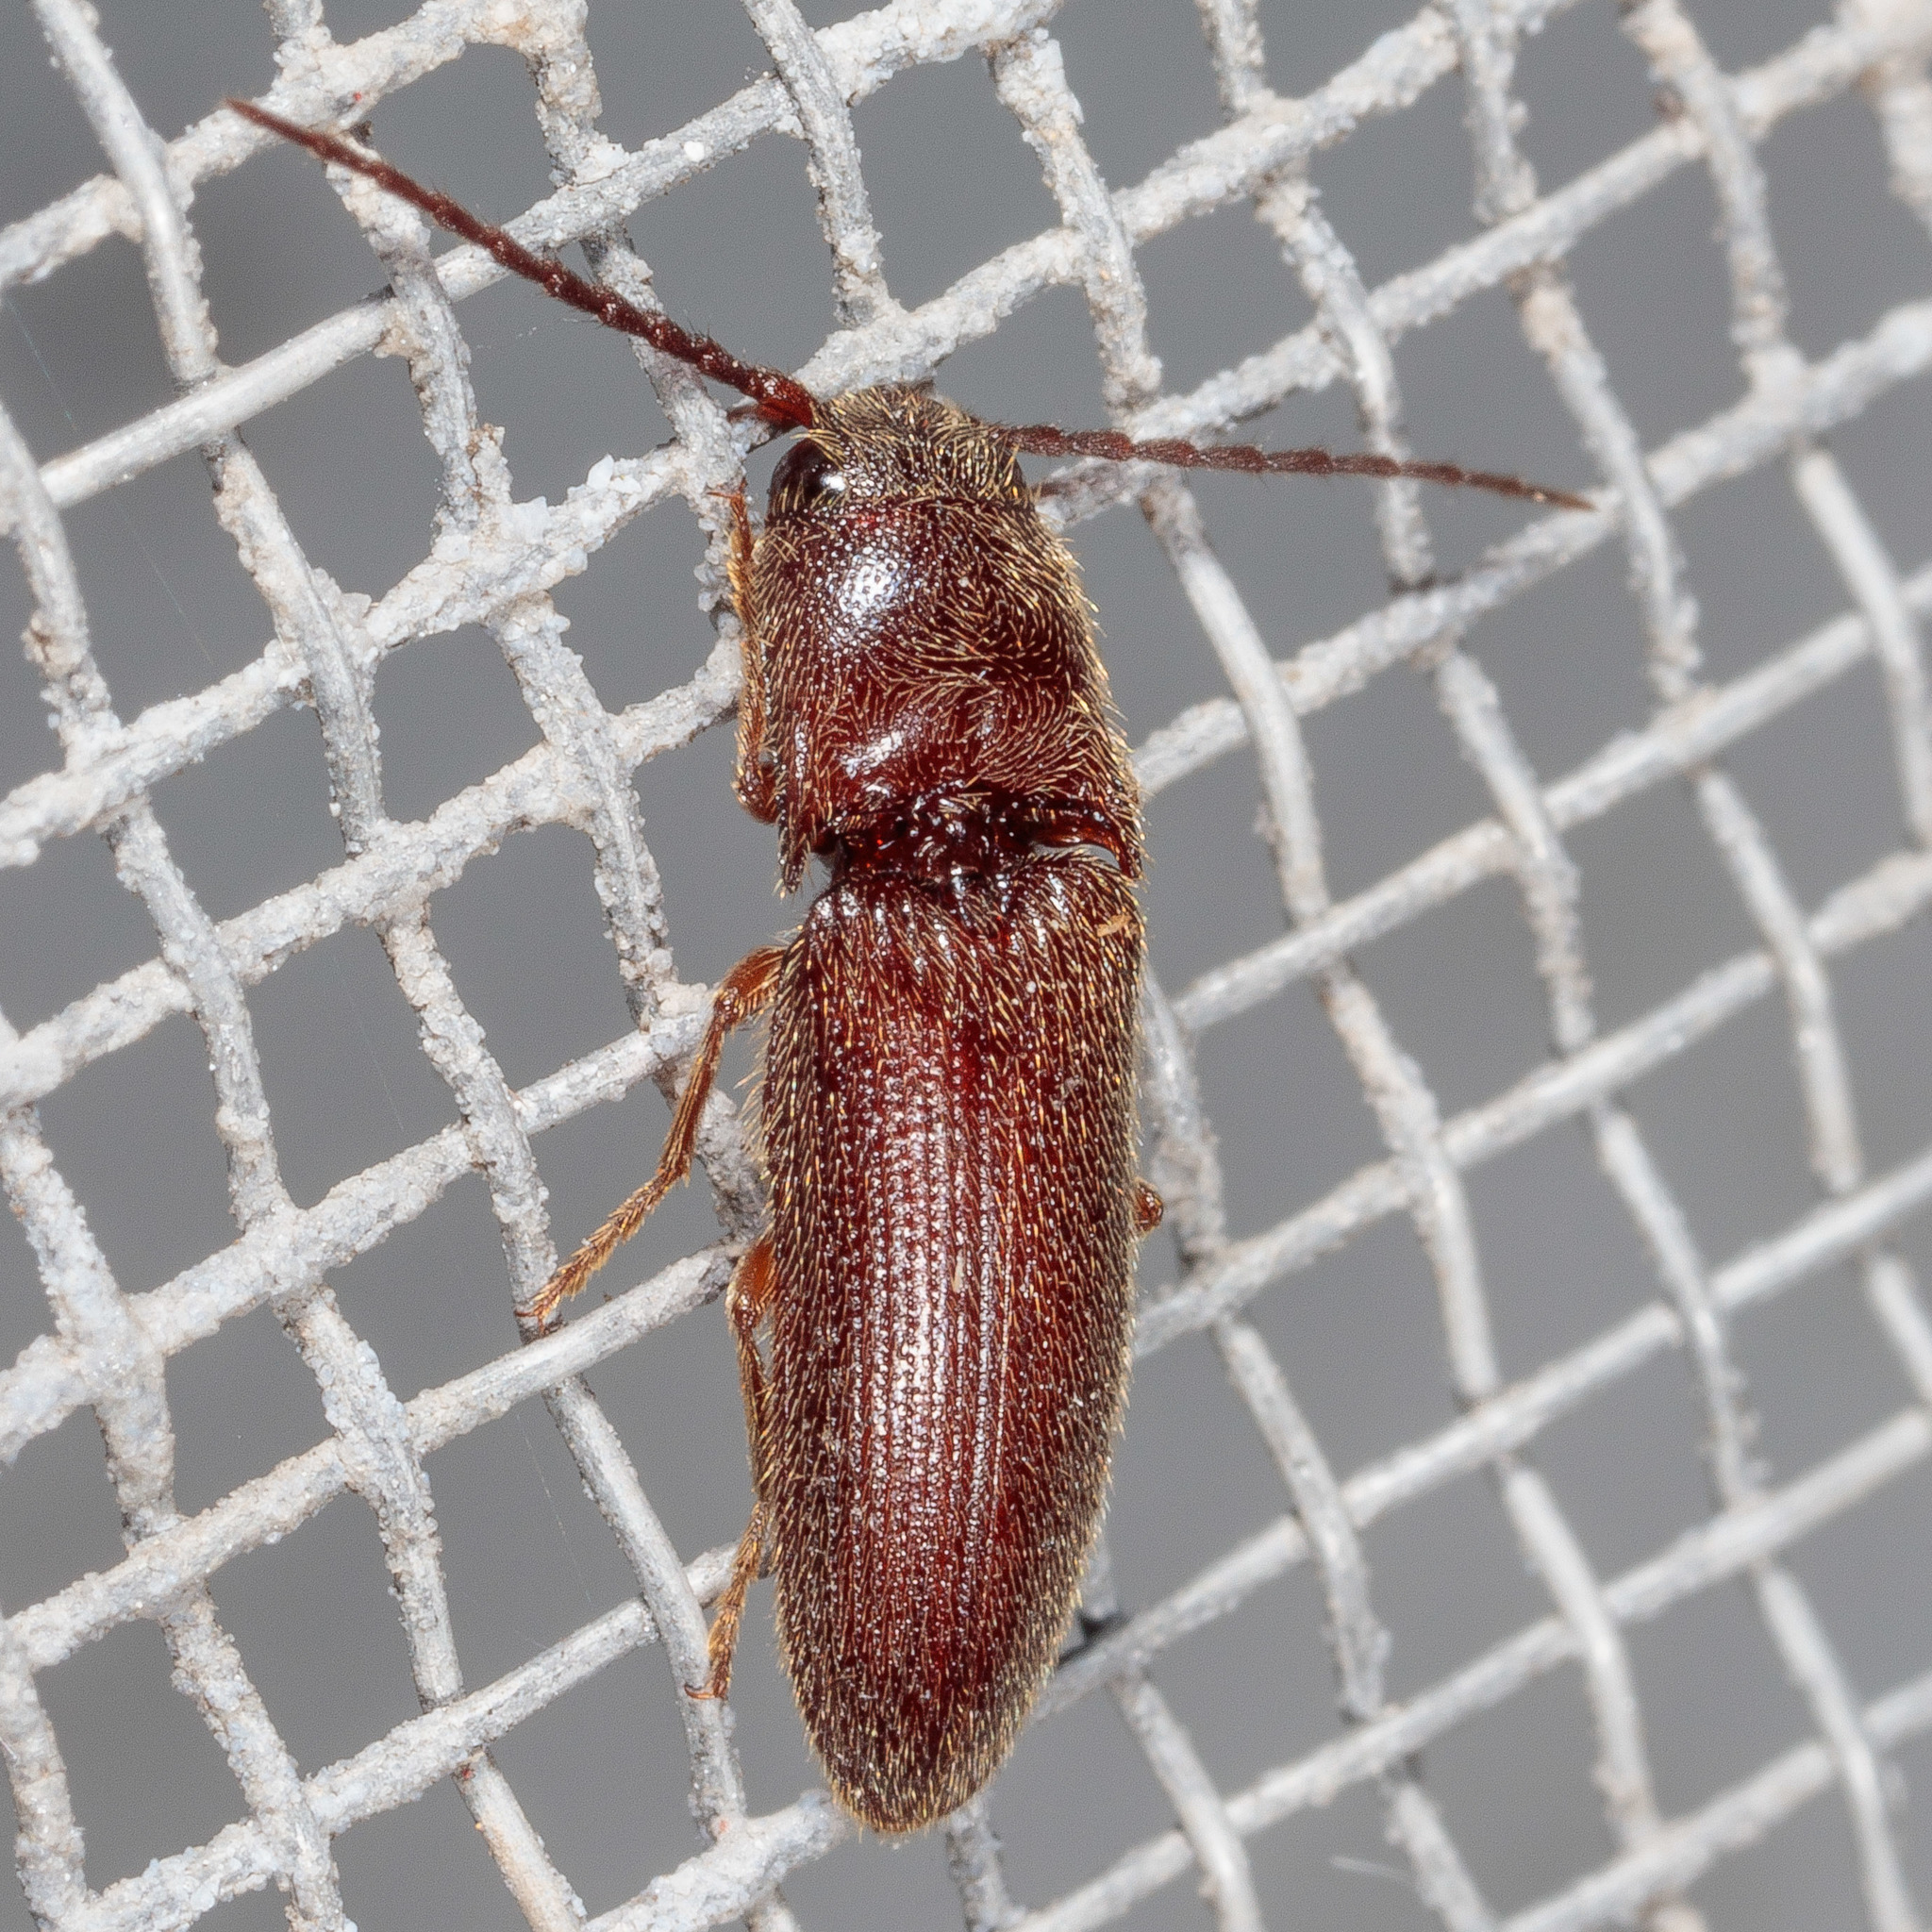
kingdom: Animalia
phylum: Arthropoda
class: Insecta
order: Coleoptera
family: Elateridae
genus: Dipropus
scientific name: Dipropus
